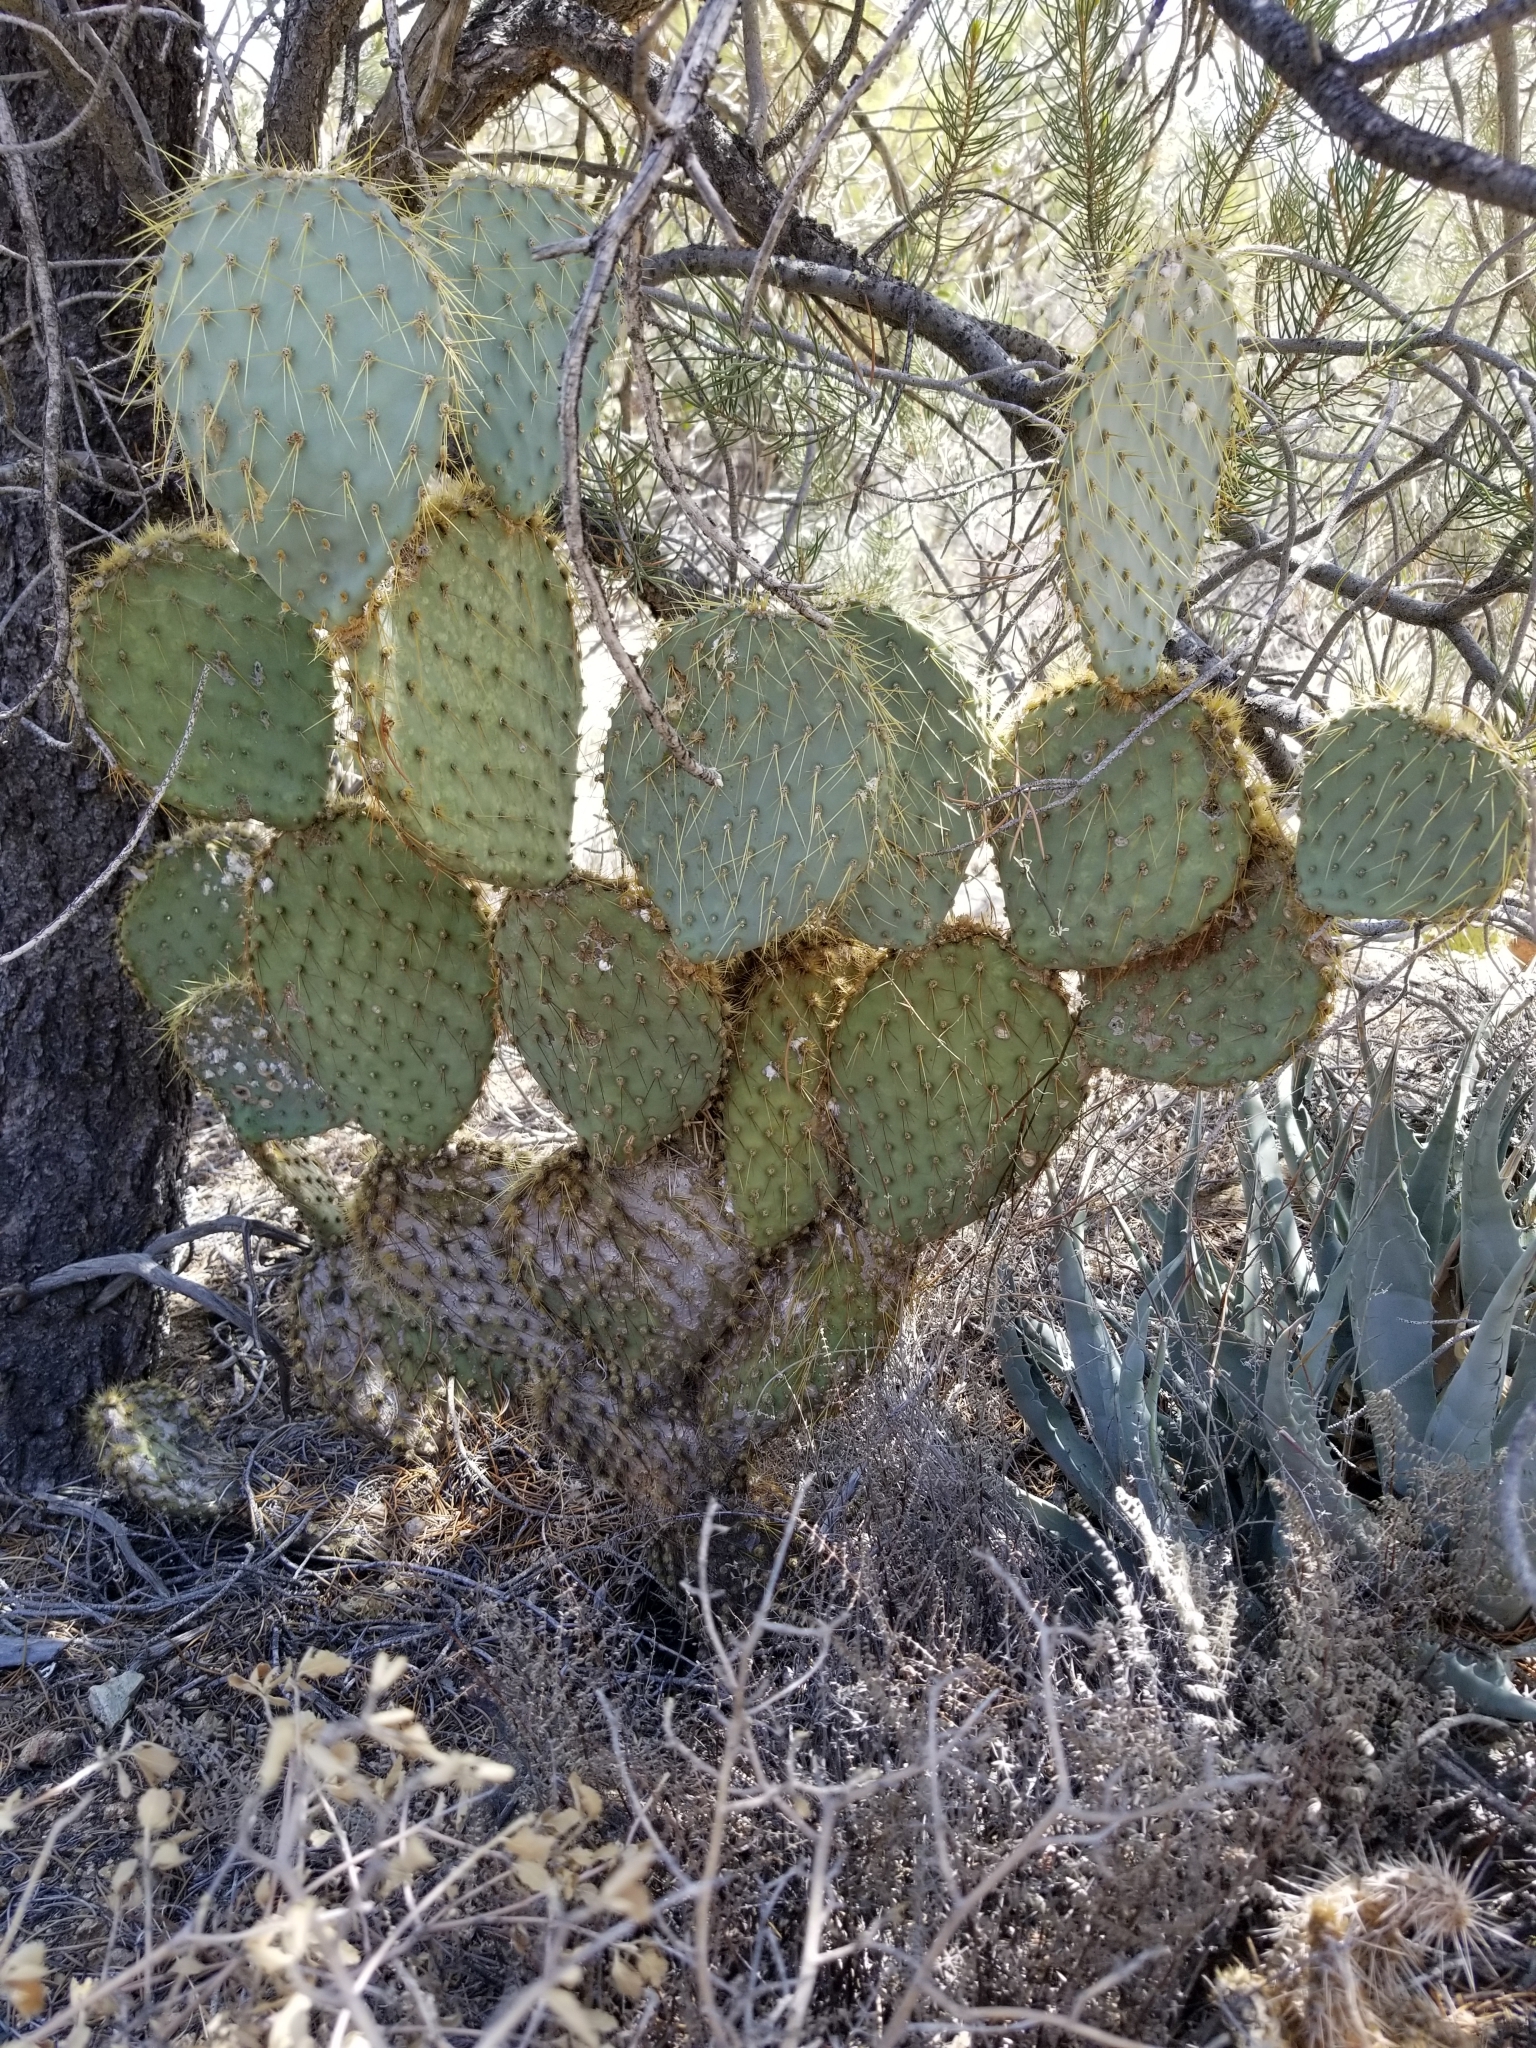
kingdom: Plantae
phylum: Tracheophyta
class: Magnoliopsida
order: Caryophyllales
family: Cactaceae
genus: Opuntia
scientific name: Opuntia chlorotica
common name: Dollar-joint prickly-pear
